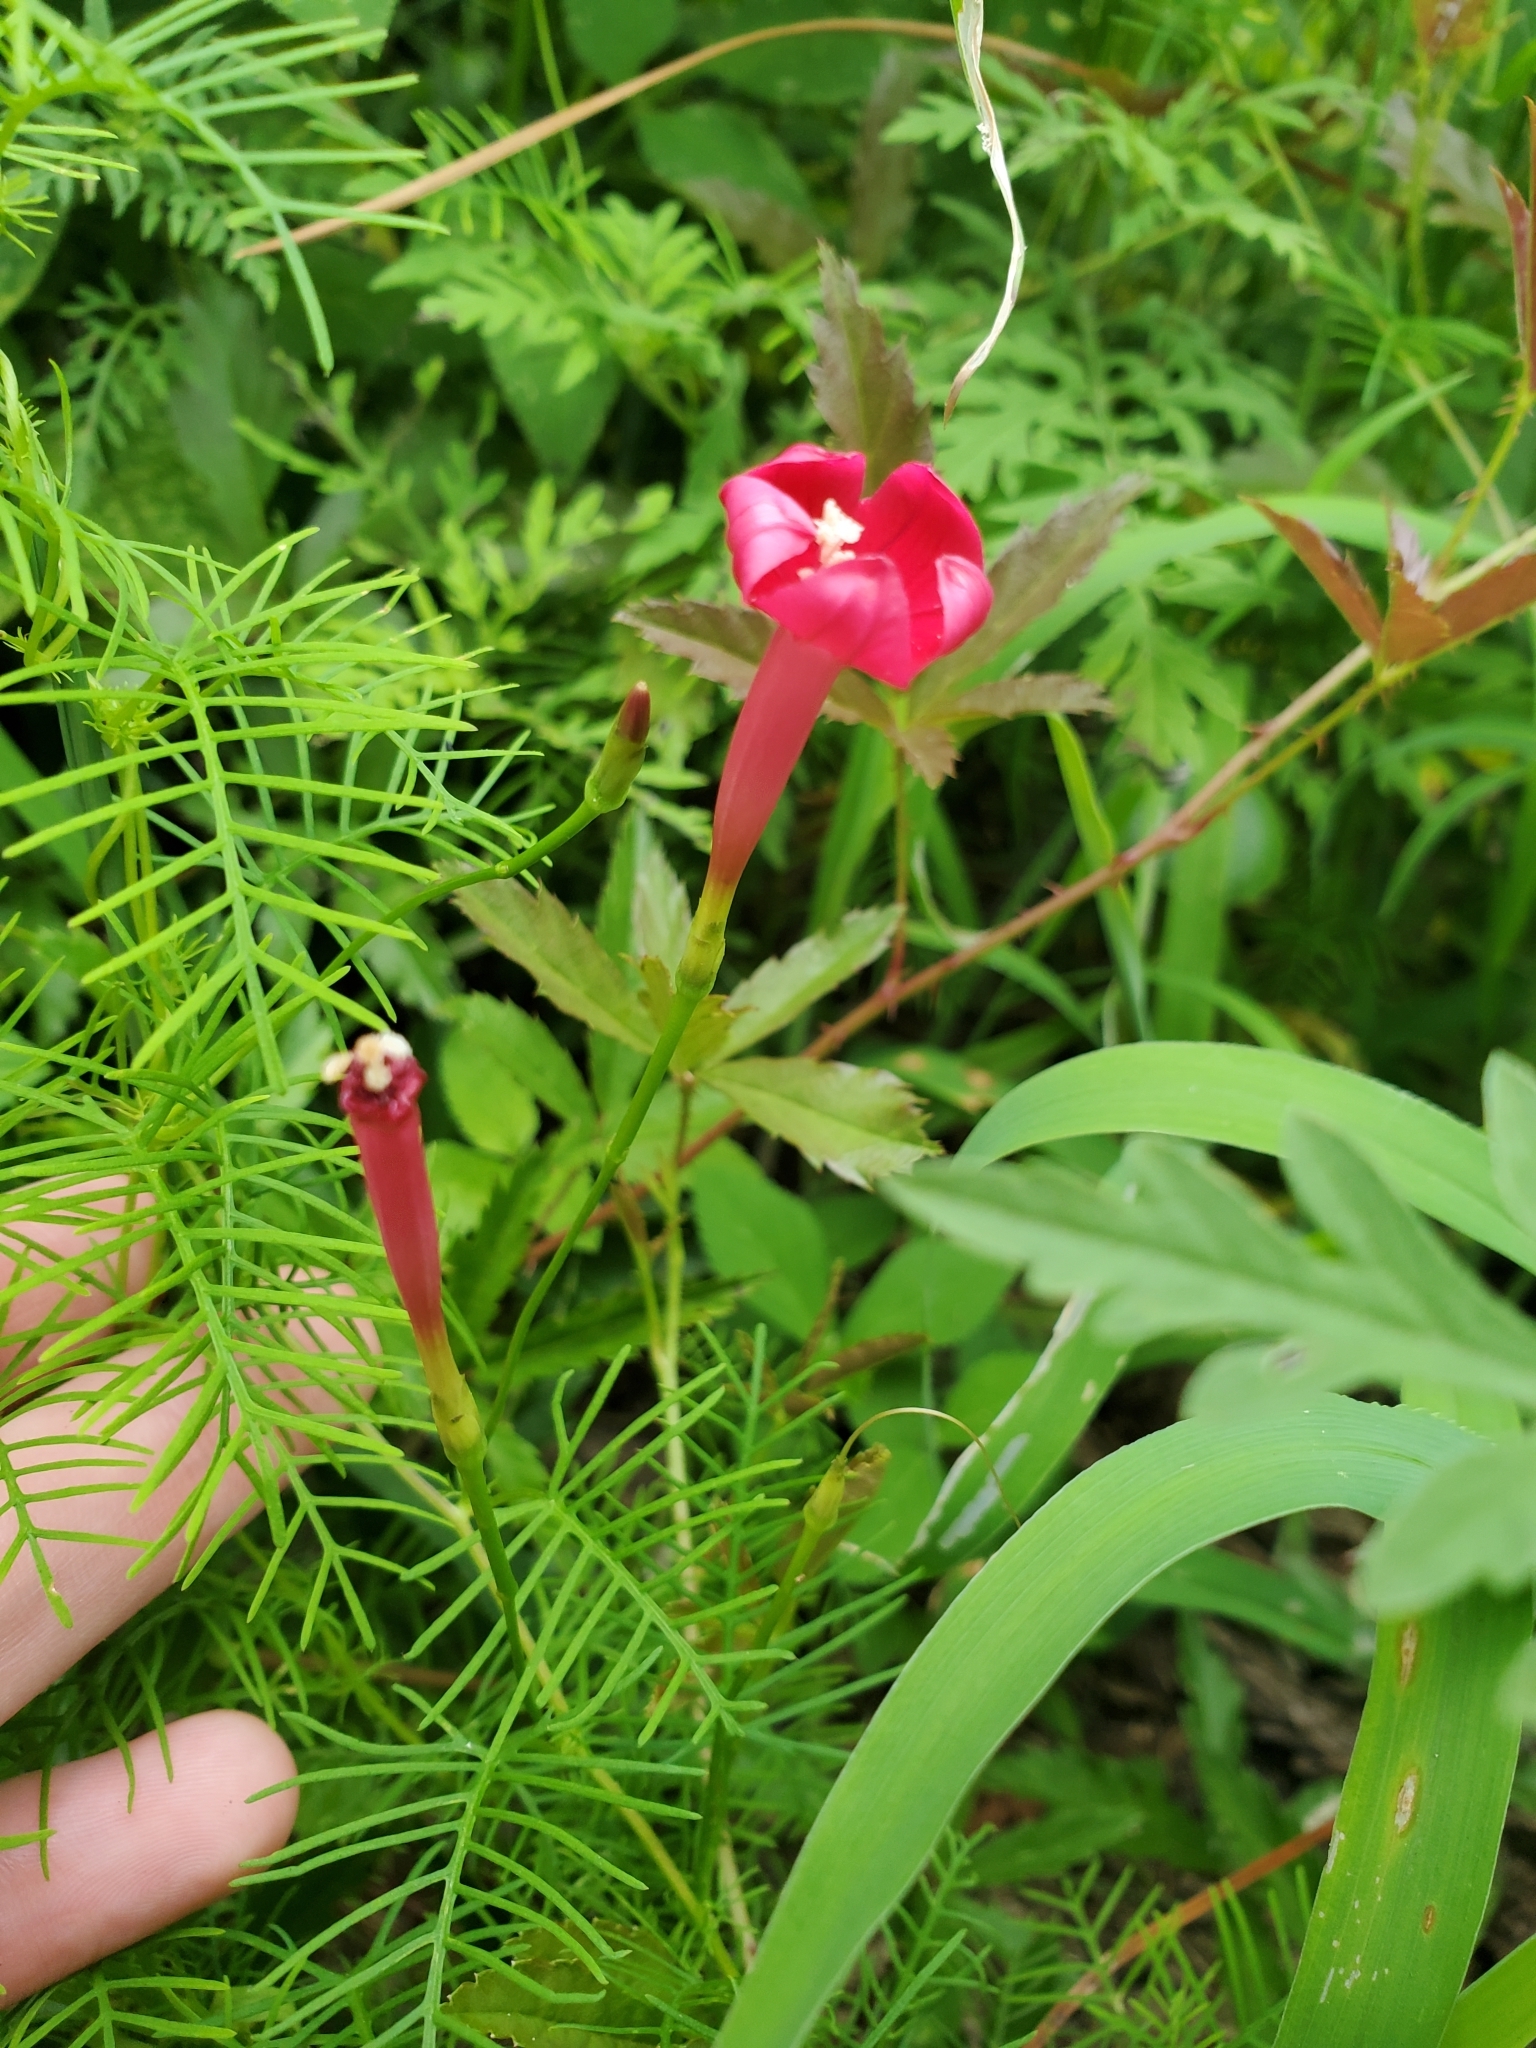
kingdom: Plantae
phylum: Tracheophyta
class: Magnoliopsida
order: Solanales
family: Convolvulaceae
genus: Ipomoea
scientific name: Ipomoea quamoclit
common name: Cypress vine
